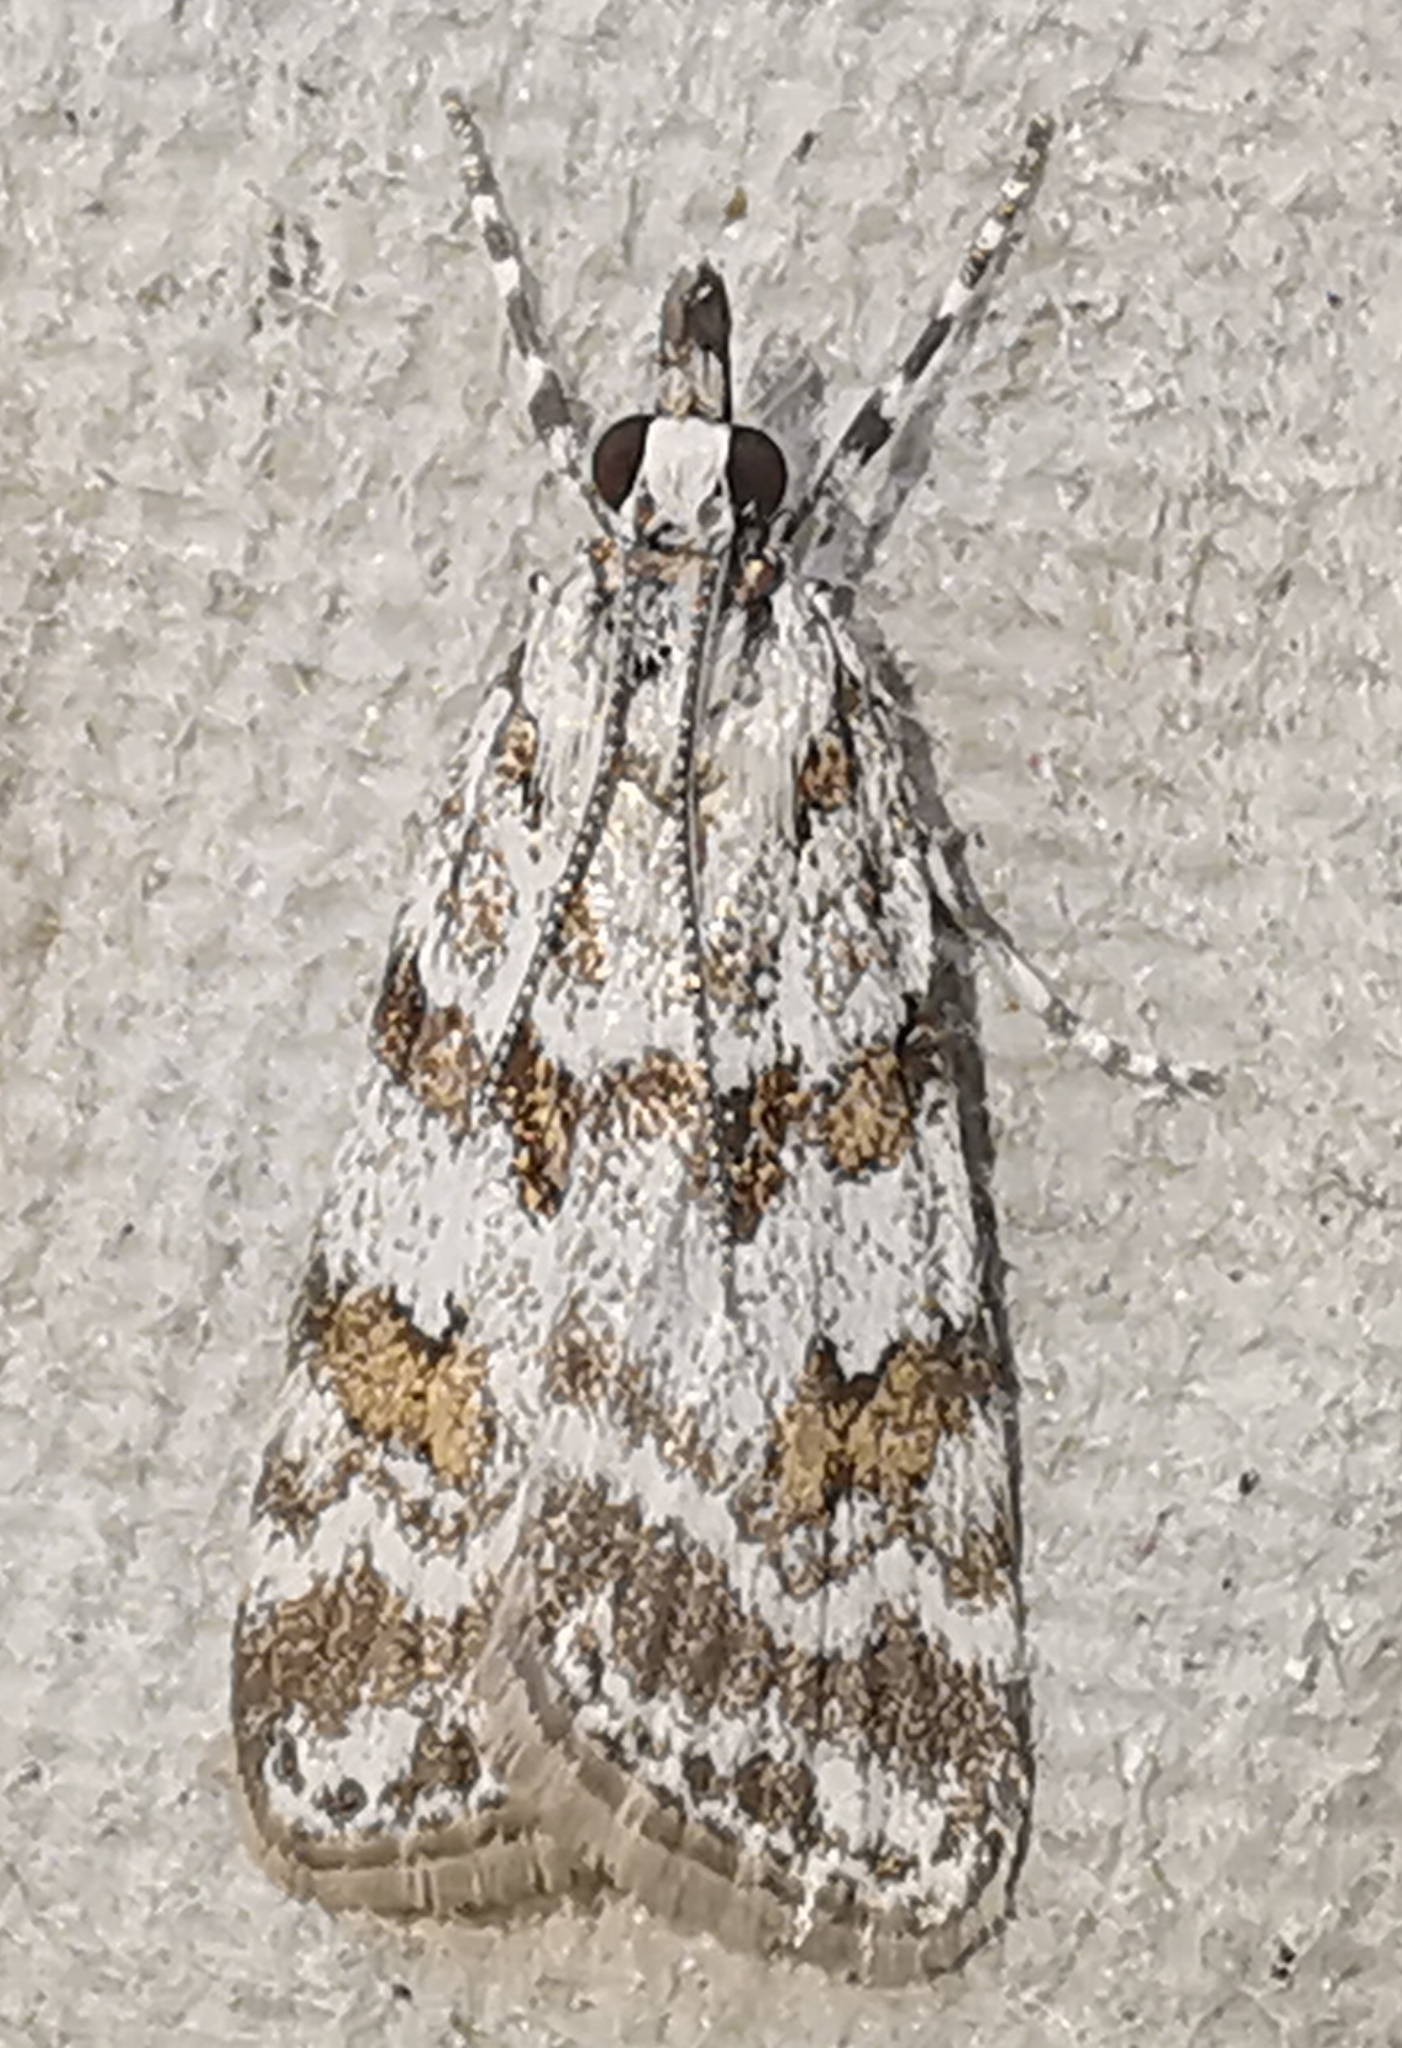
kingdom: Animalia
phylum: Arthropoda
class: Insecta
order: Lepidoptera
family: Crambidae
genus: Scoparia
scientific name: Scoparia pyralella
